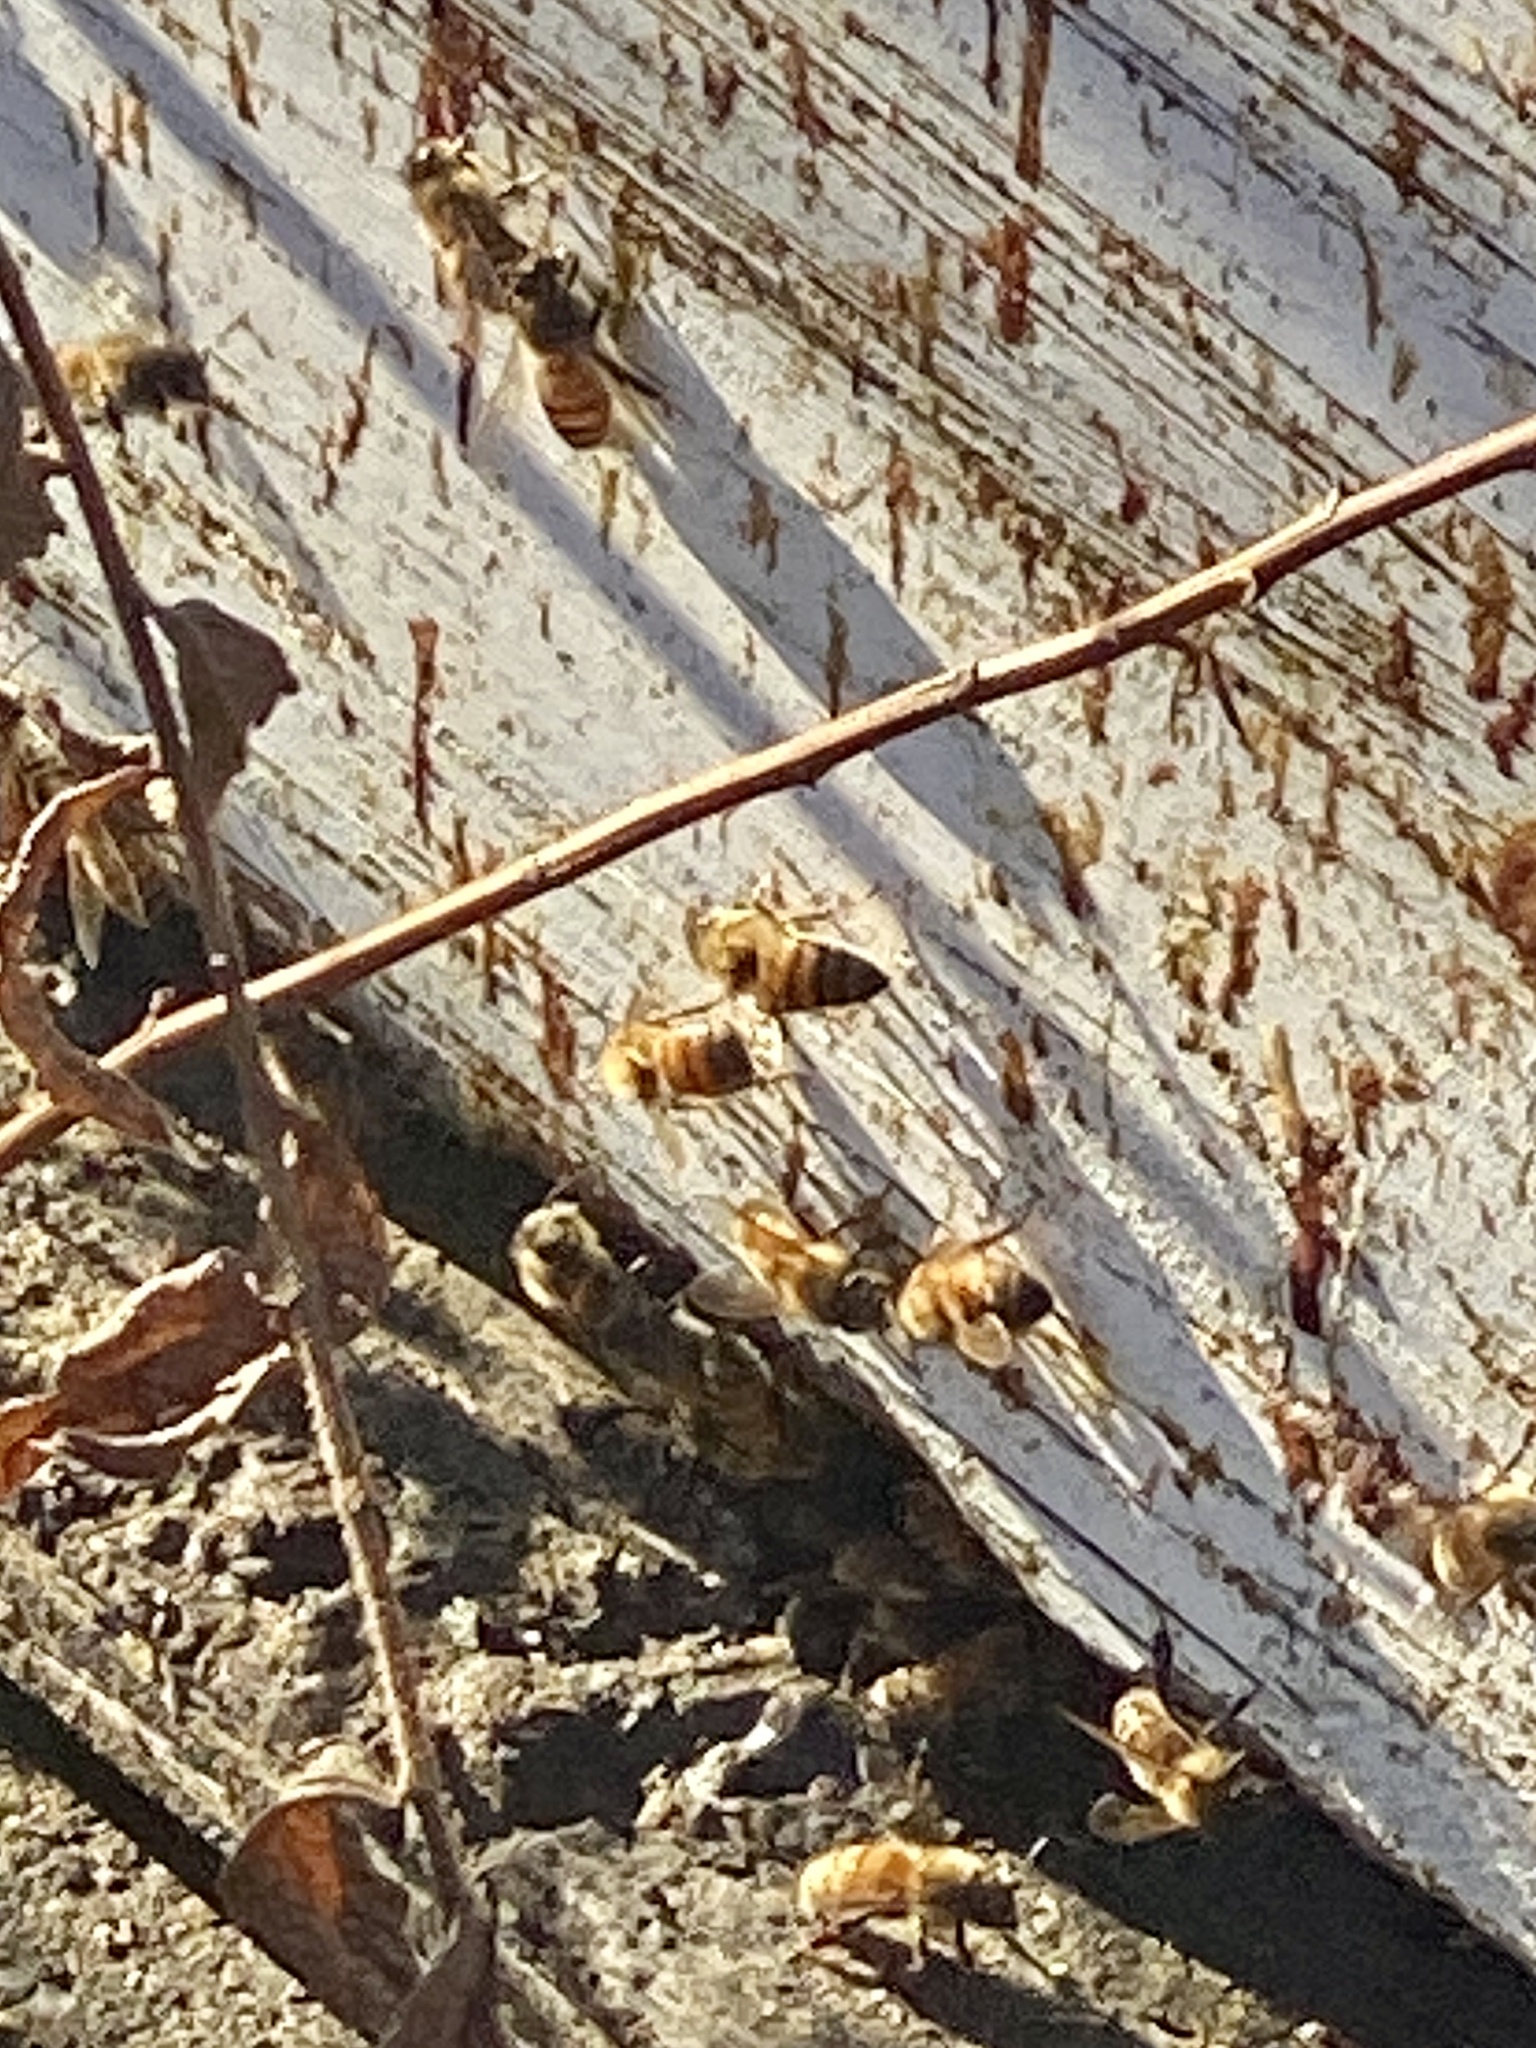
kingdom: Animalia
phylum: Arthropoda
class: Insecta
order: Hymenoptera
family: Apidae
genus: Apis
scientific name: Apis mellifera
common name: Honey bee
